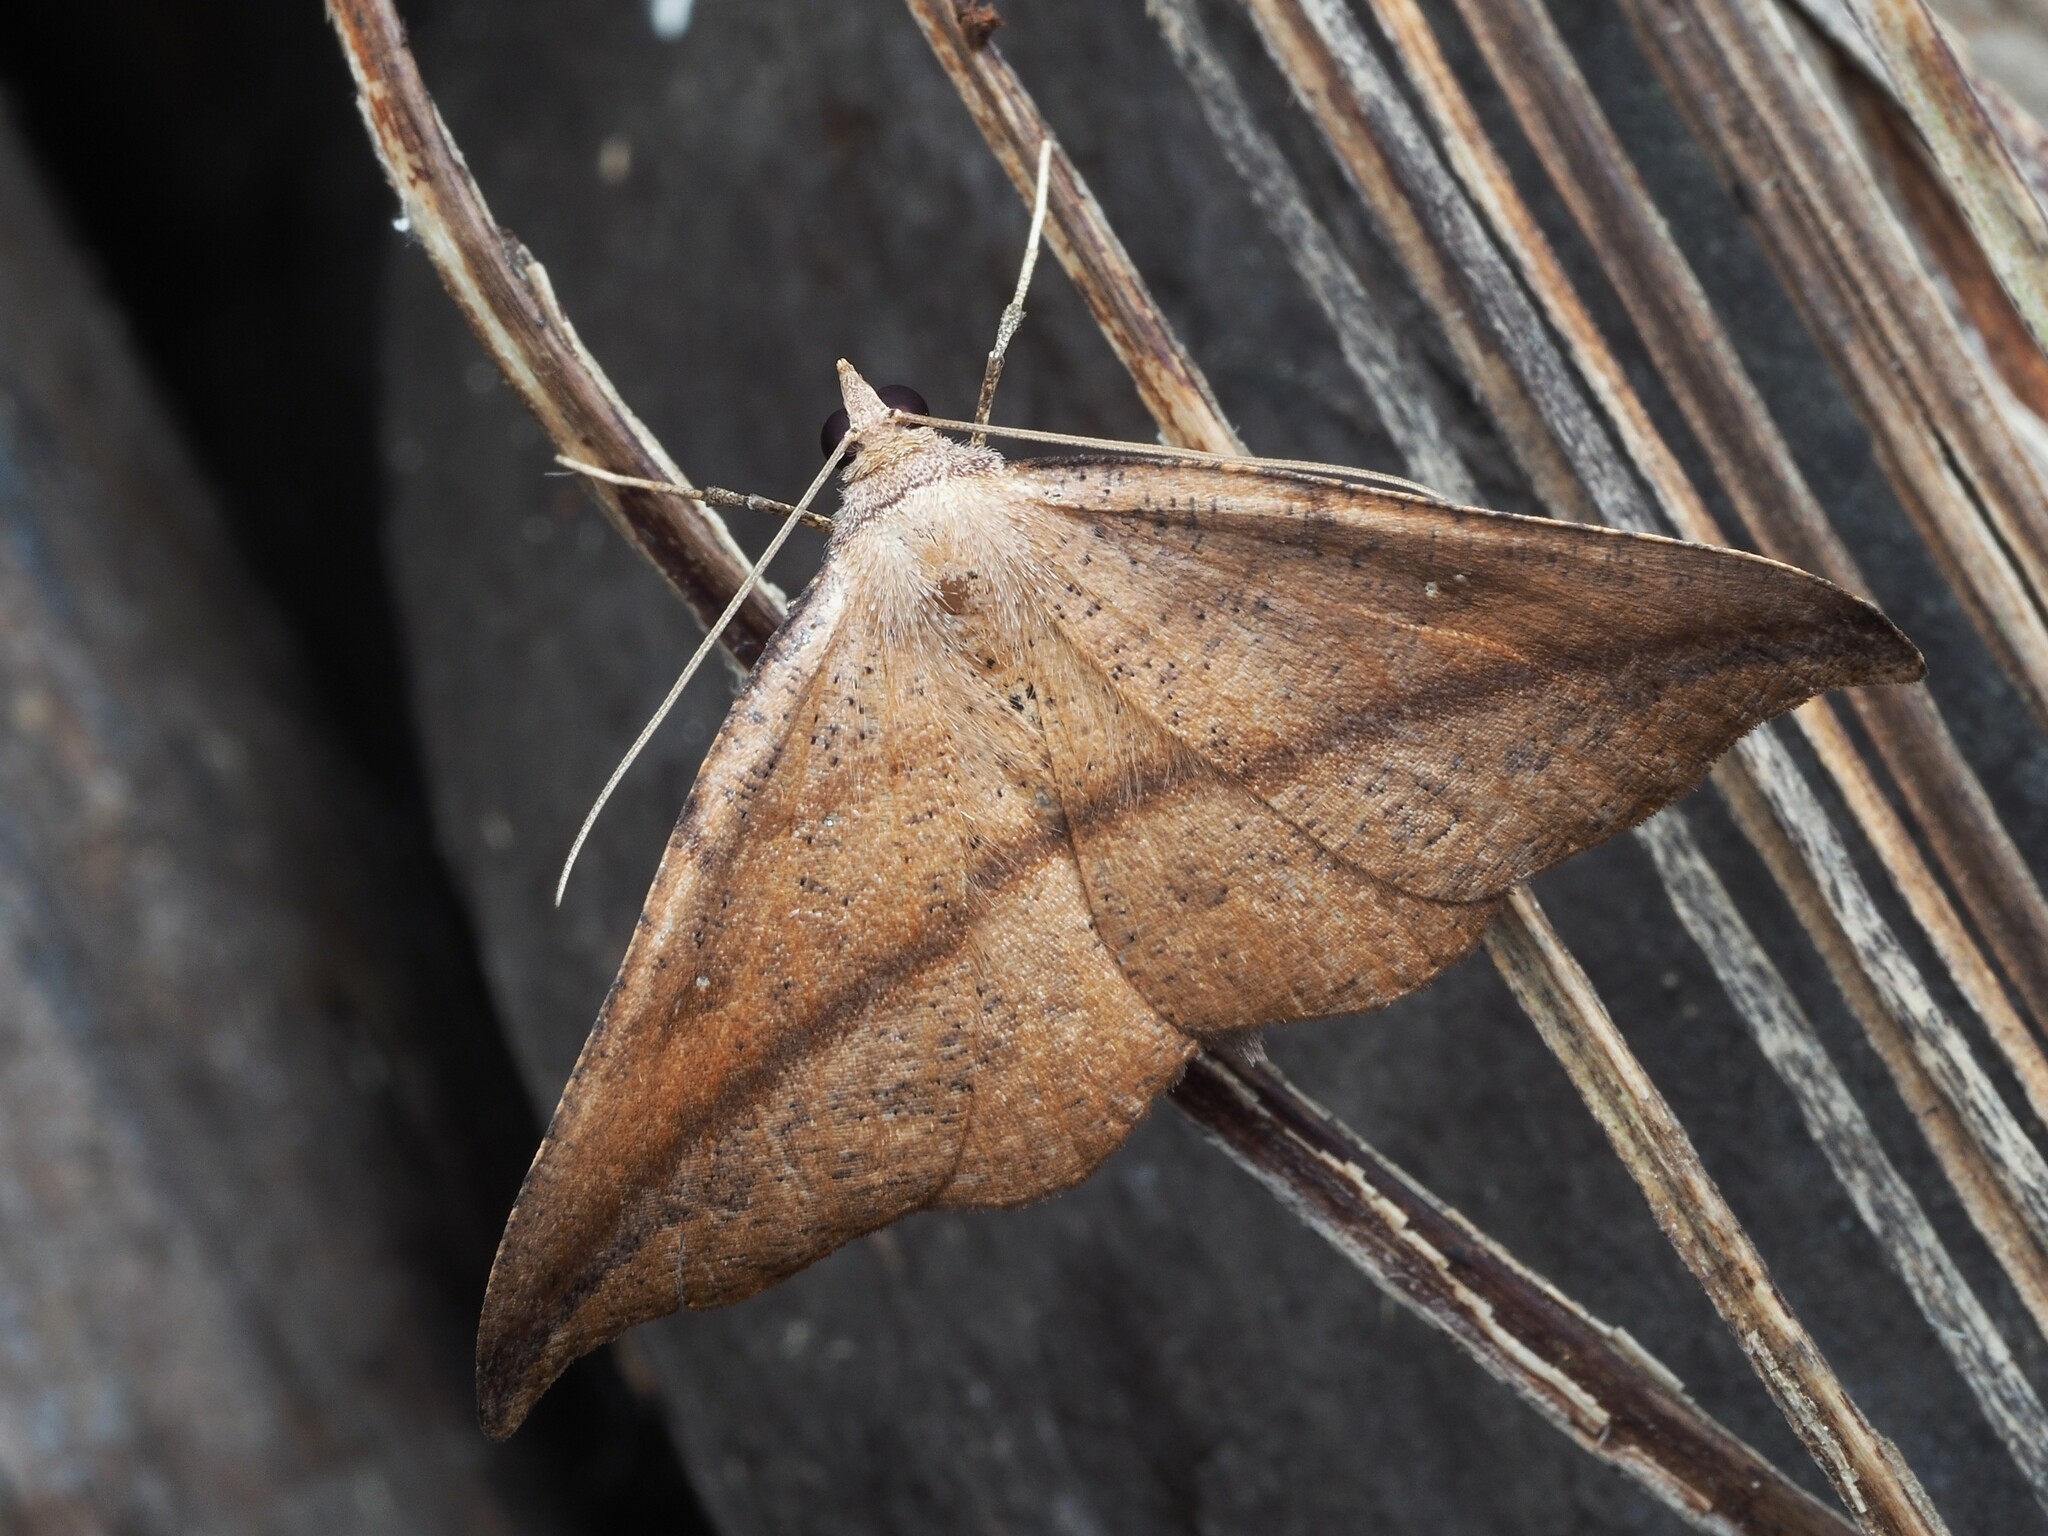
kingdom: Animalia
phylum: Arthropoda
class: Insecta
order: Lepidoptera
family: Geometridae
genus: Sarisa
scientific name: Sarisa muriferata
